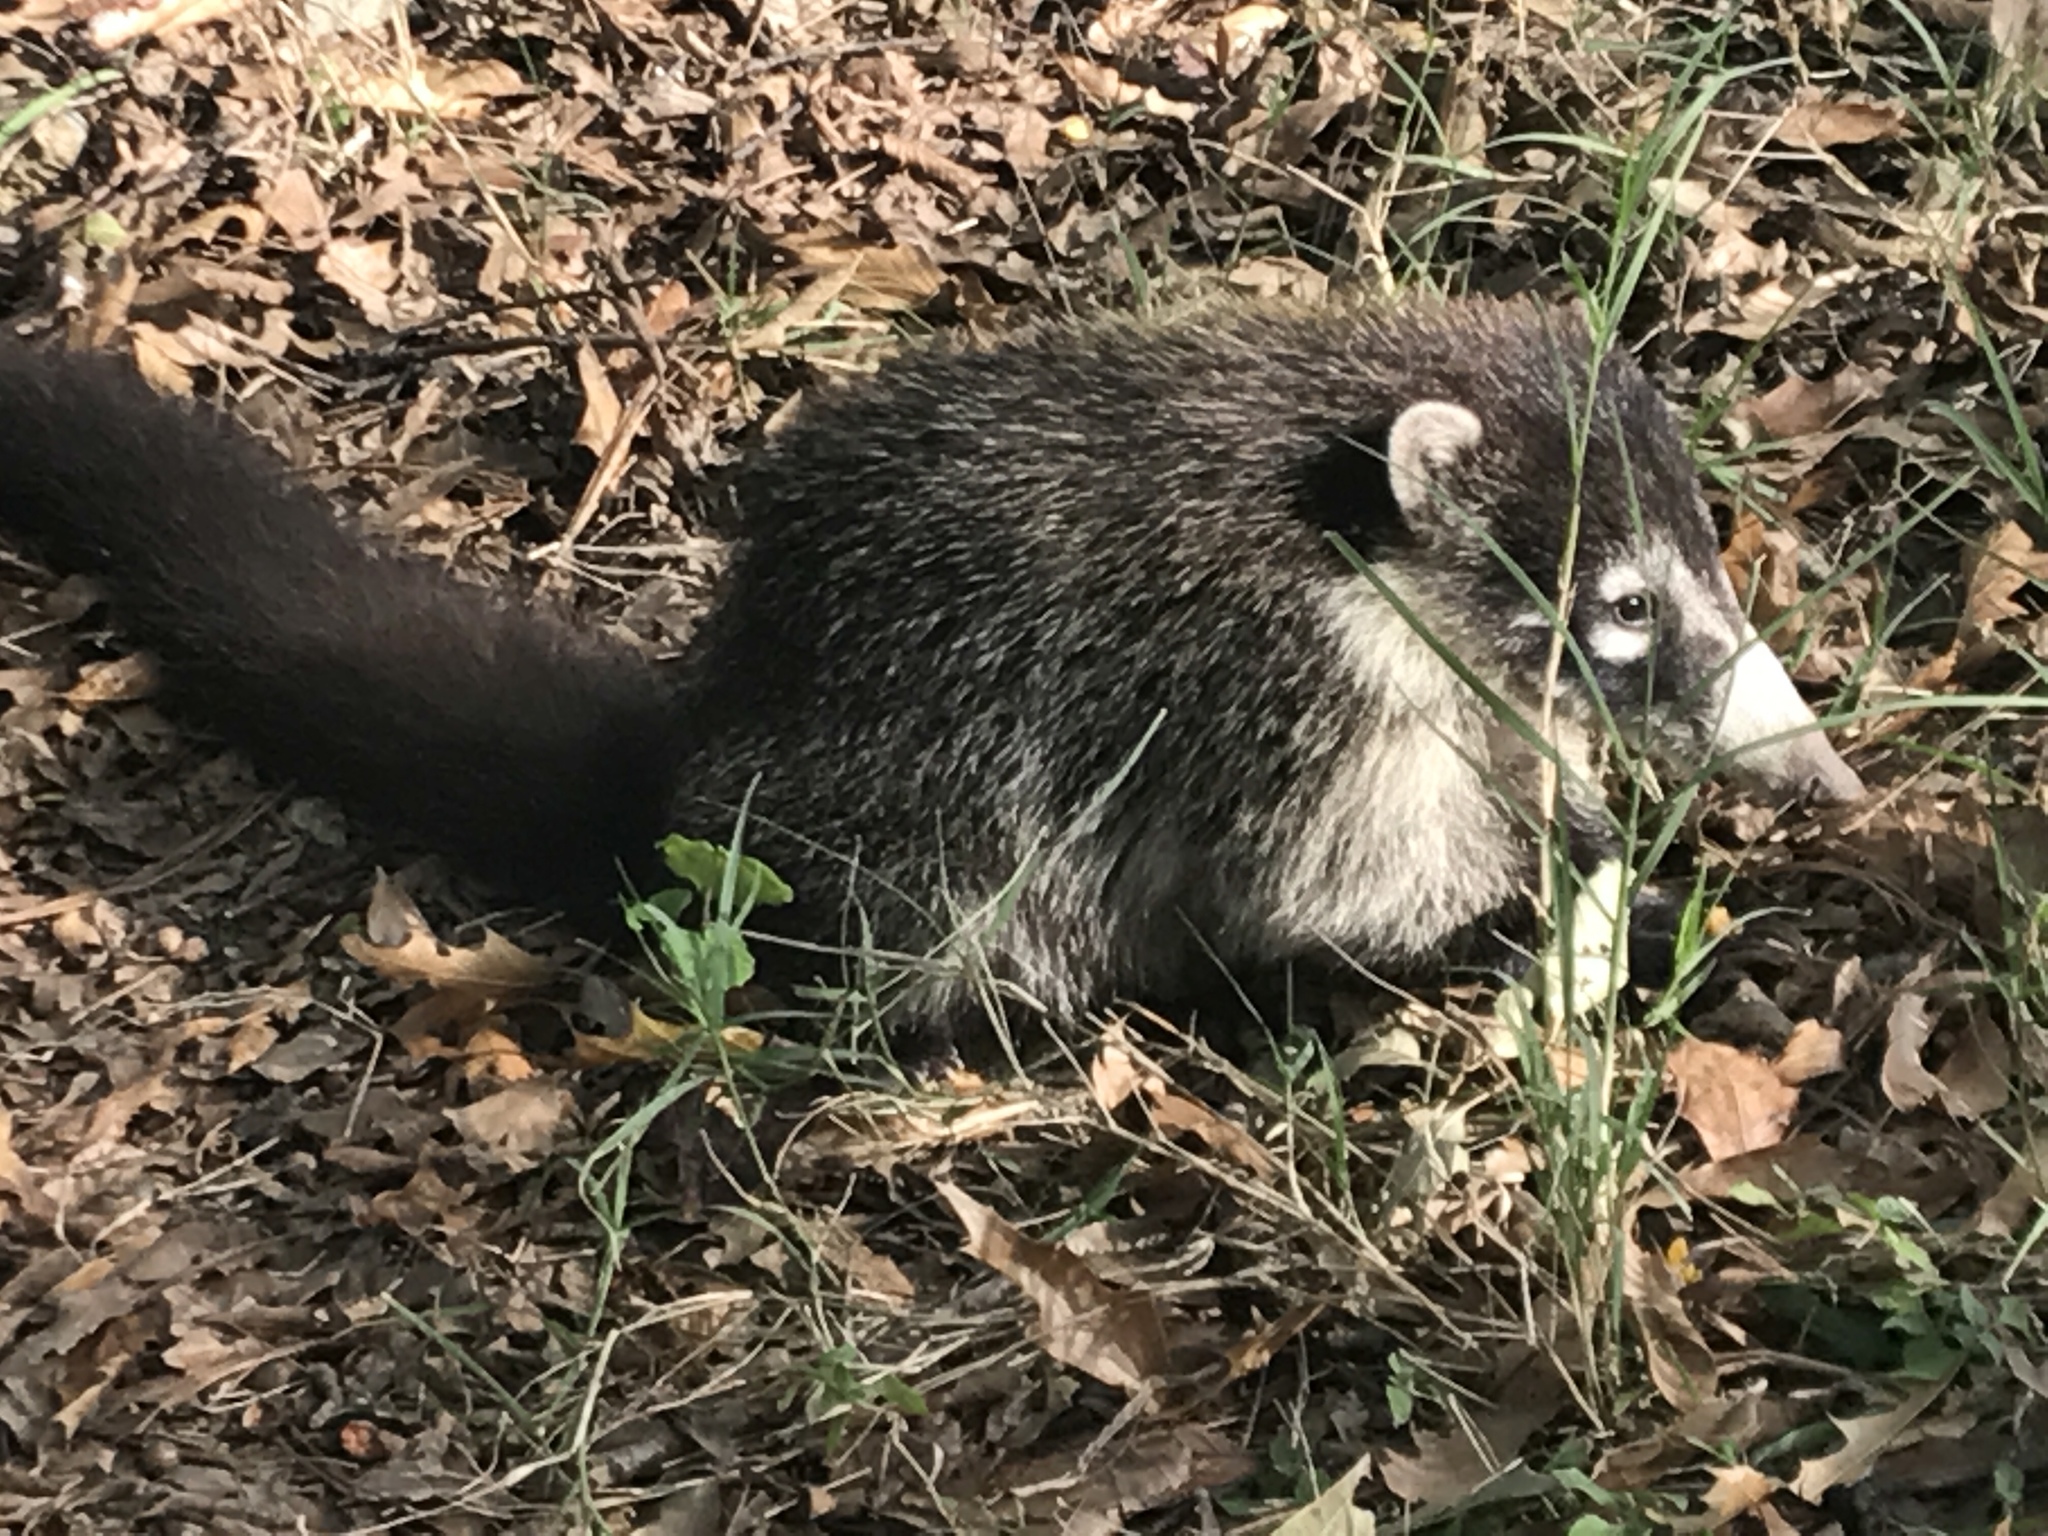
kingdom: Animalia
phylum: Chordata
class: Mammalia
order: Carnivora
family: Procyonidae
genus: Nasua
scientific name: Nasua narica
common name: White-nosed coati
